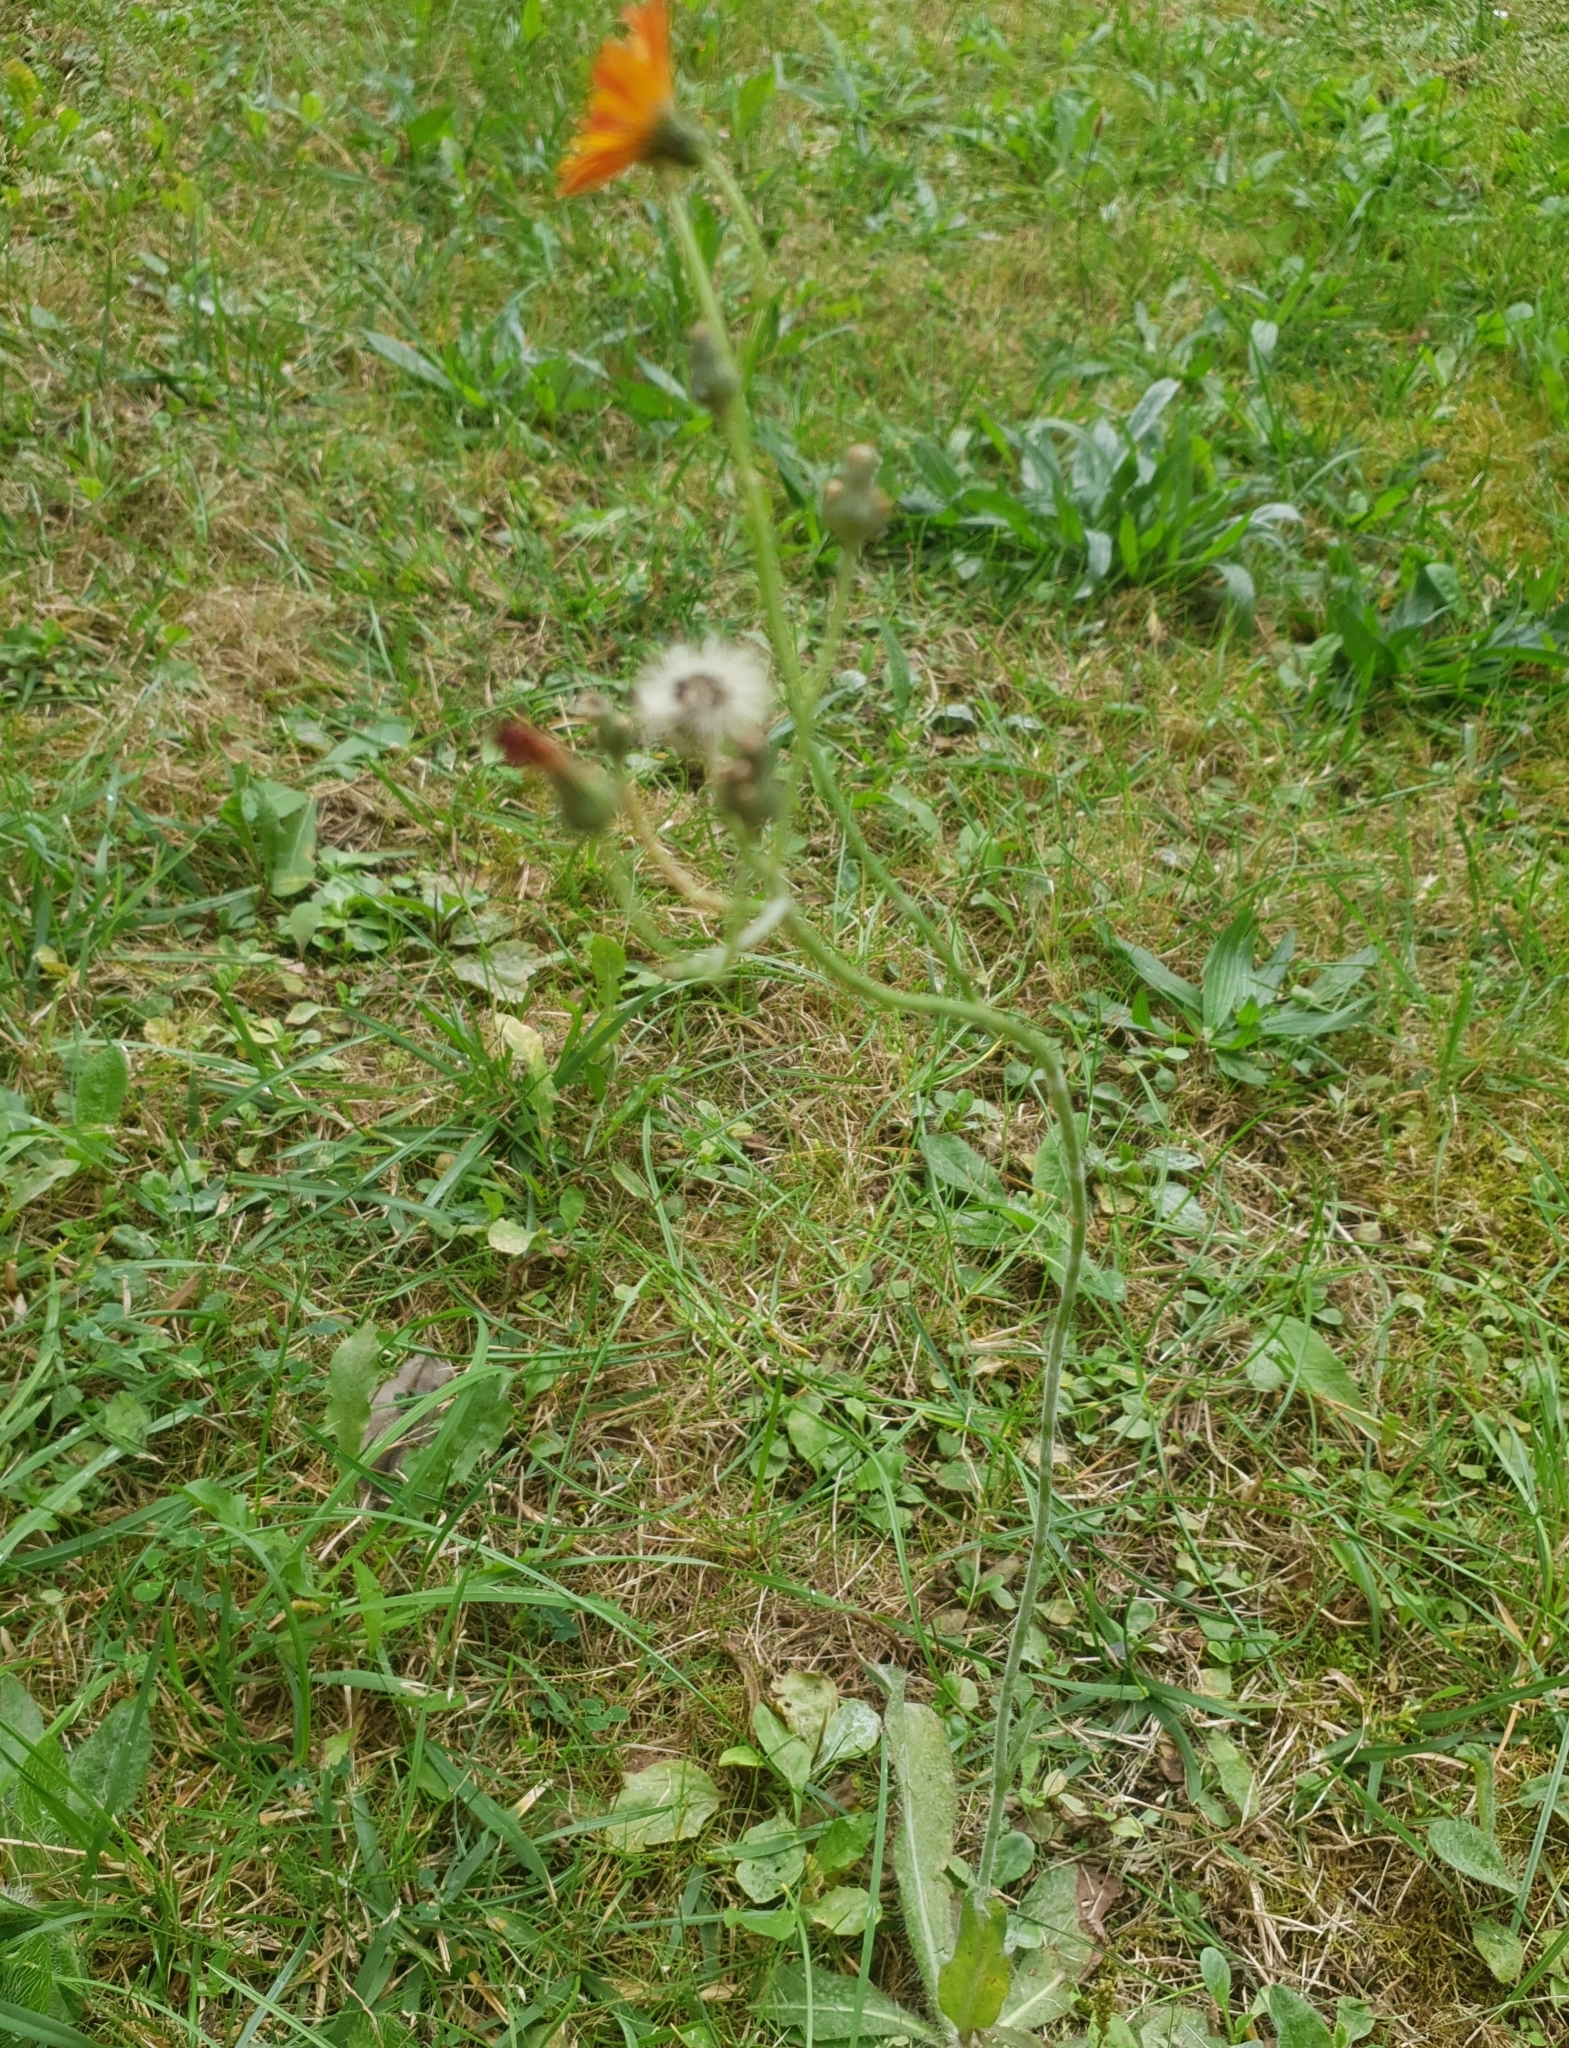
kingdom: Plantae
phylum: Tracheophyta
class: Magnoliopsida
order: Asterales
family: Asteraceae
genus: Pilosella
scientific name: Pilosella aurantiaca
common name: Fox-and-cubs
